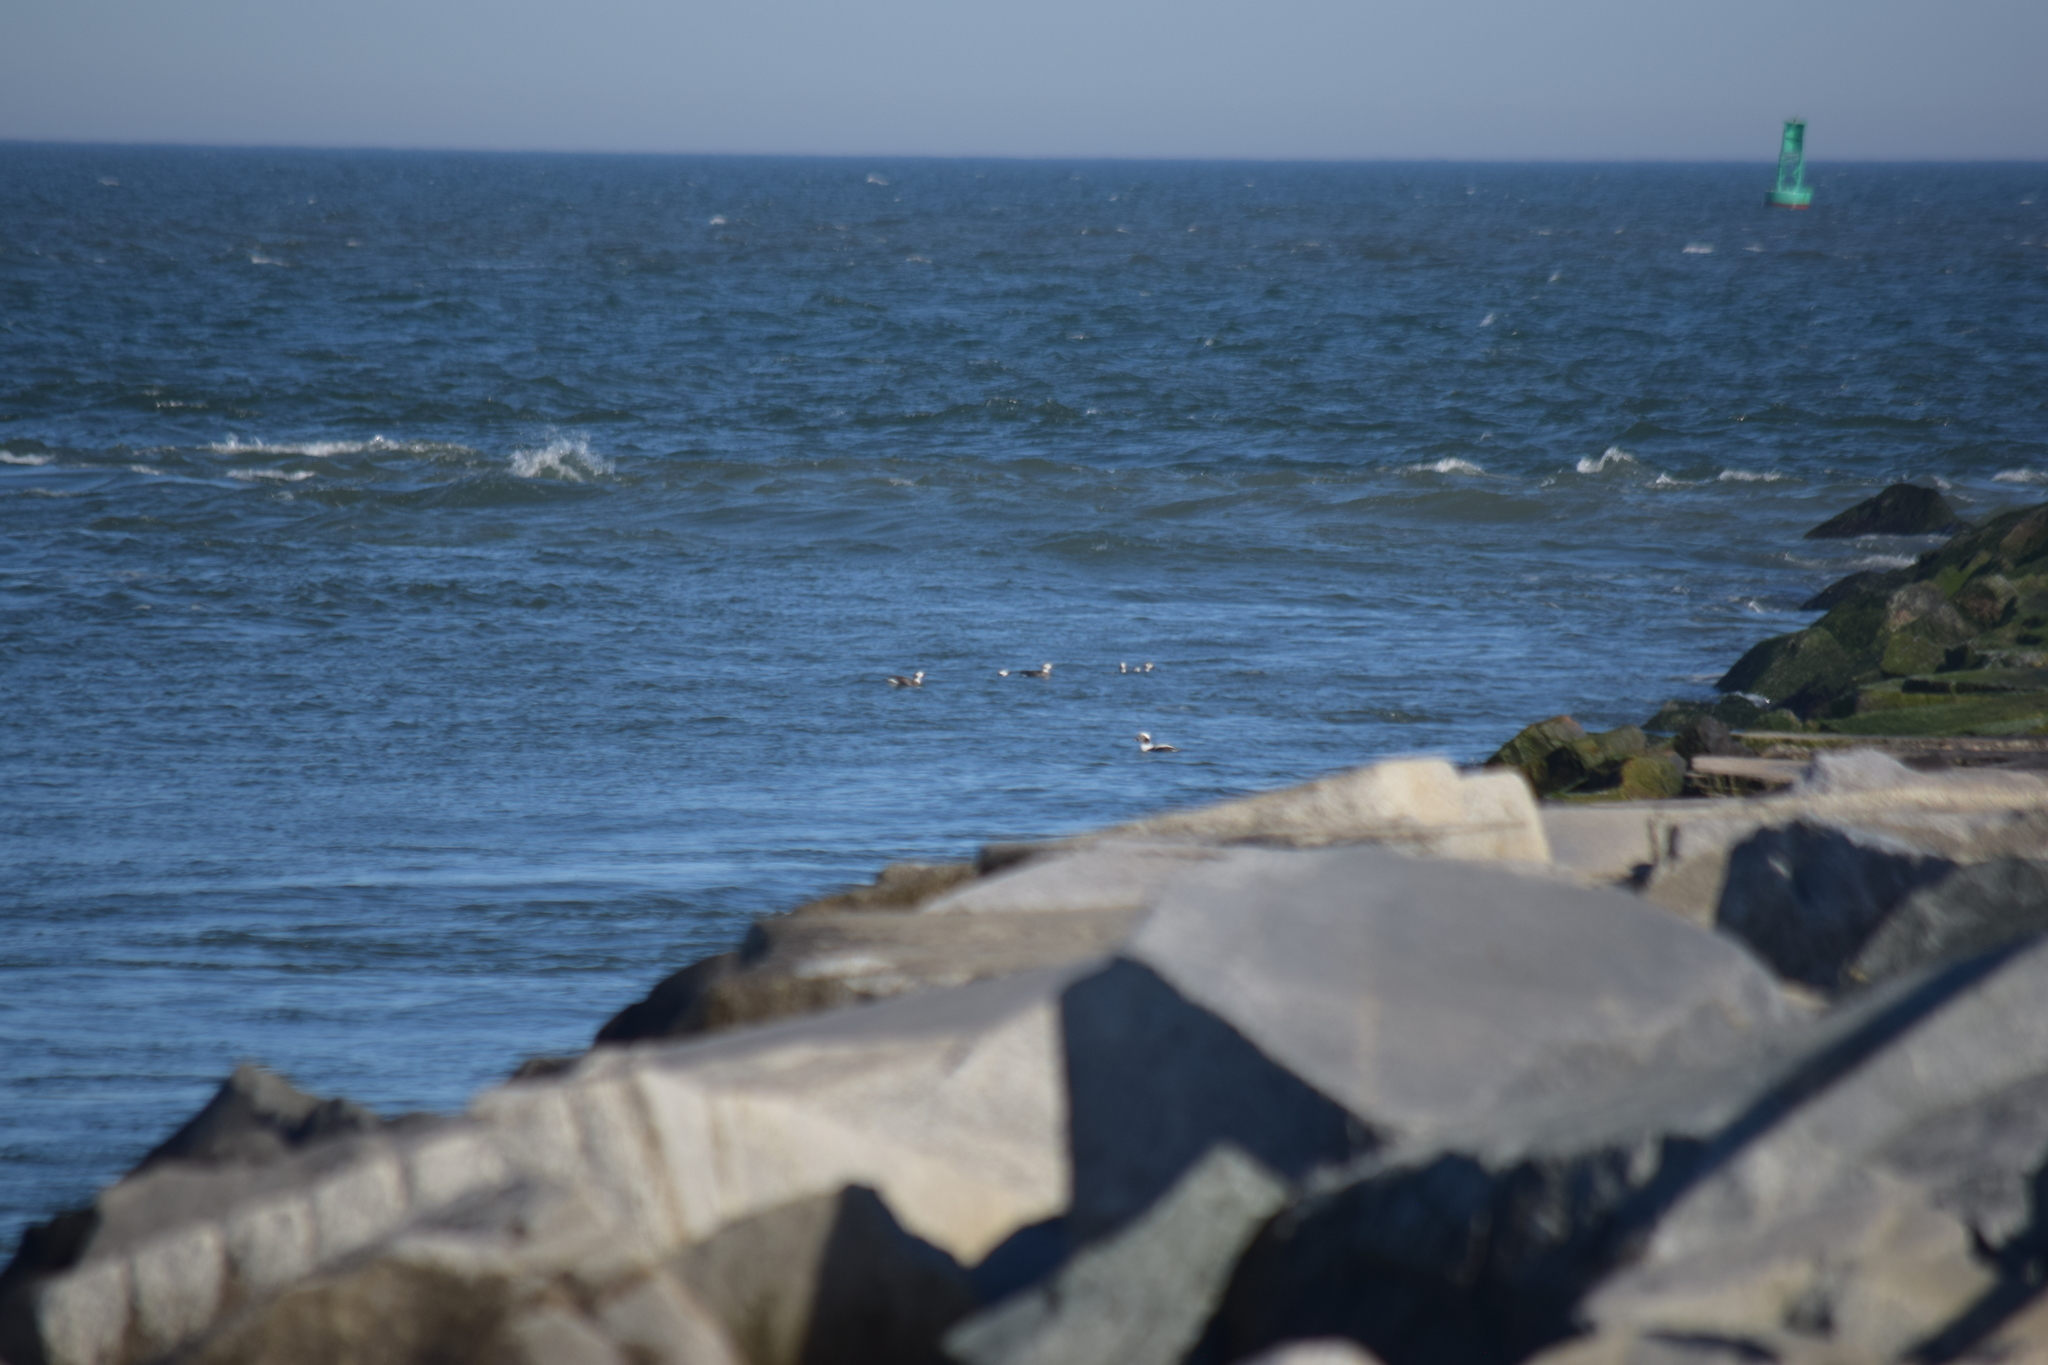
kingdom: Animalia
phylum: Chordata
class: Aves
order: Anseriformes
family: Anatidae
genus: Clangula
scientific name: Clangula hyemalis
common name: Long-tailed duck
